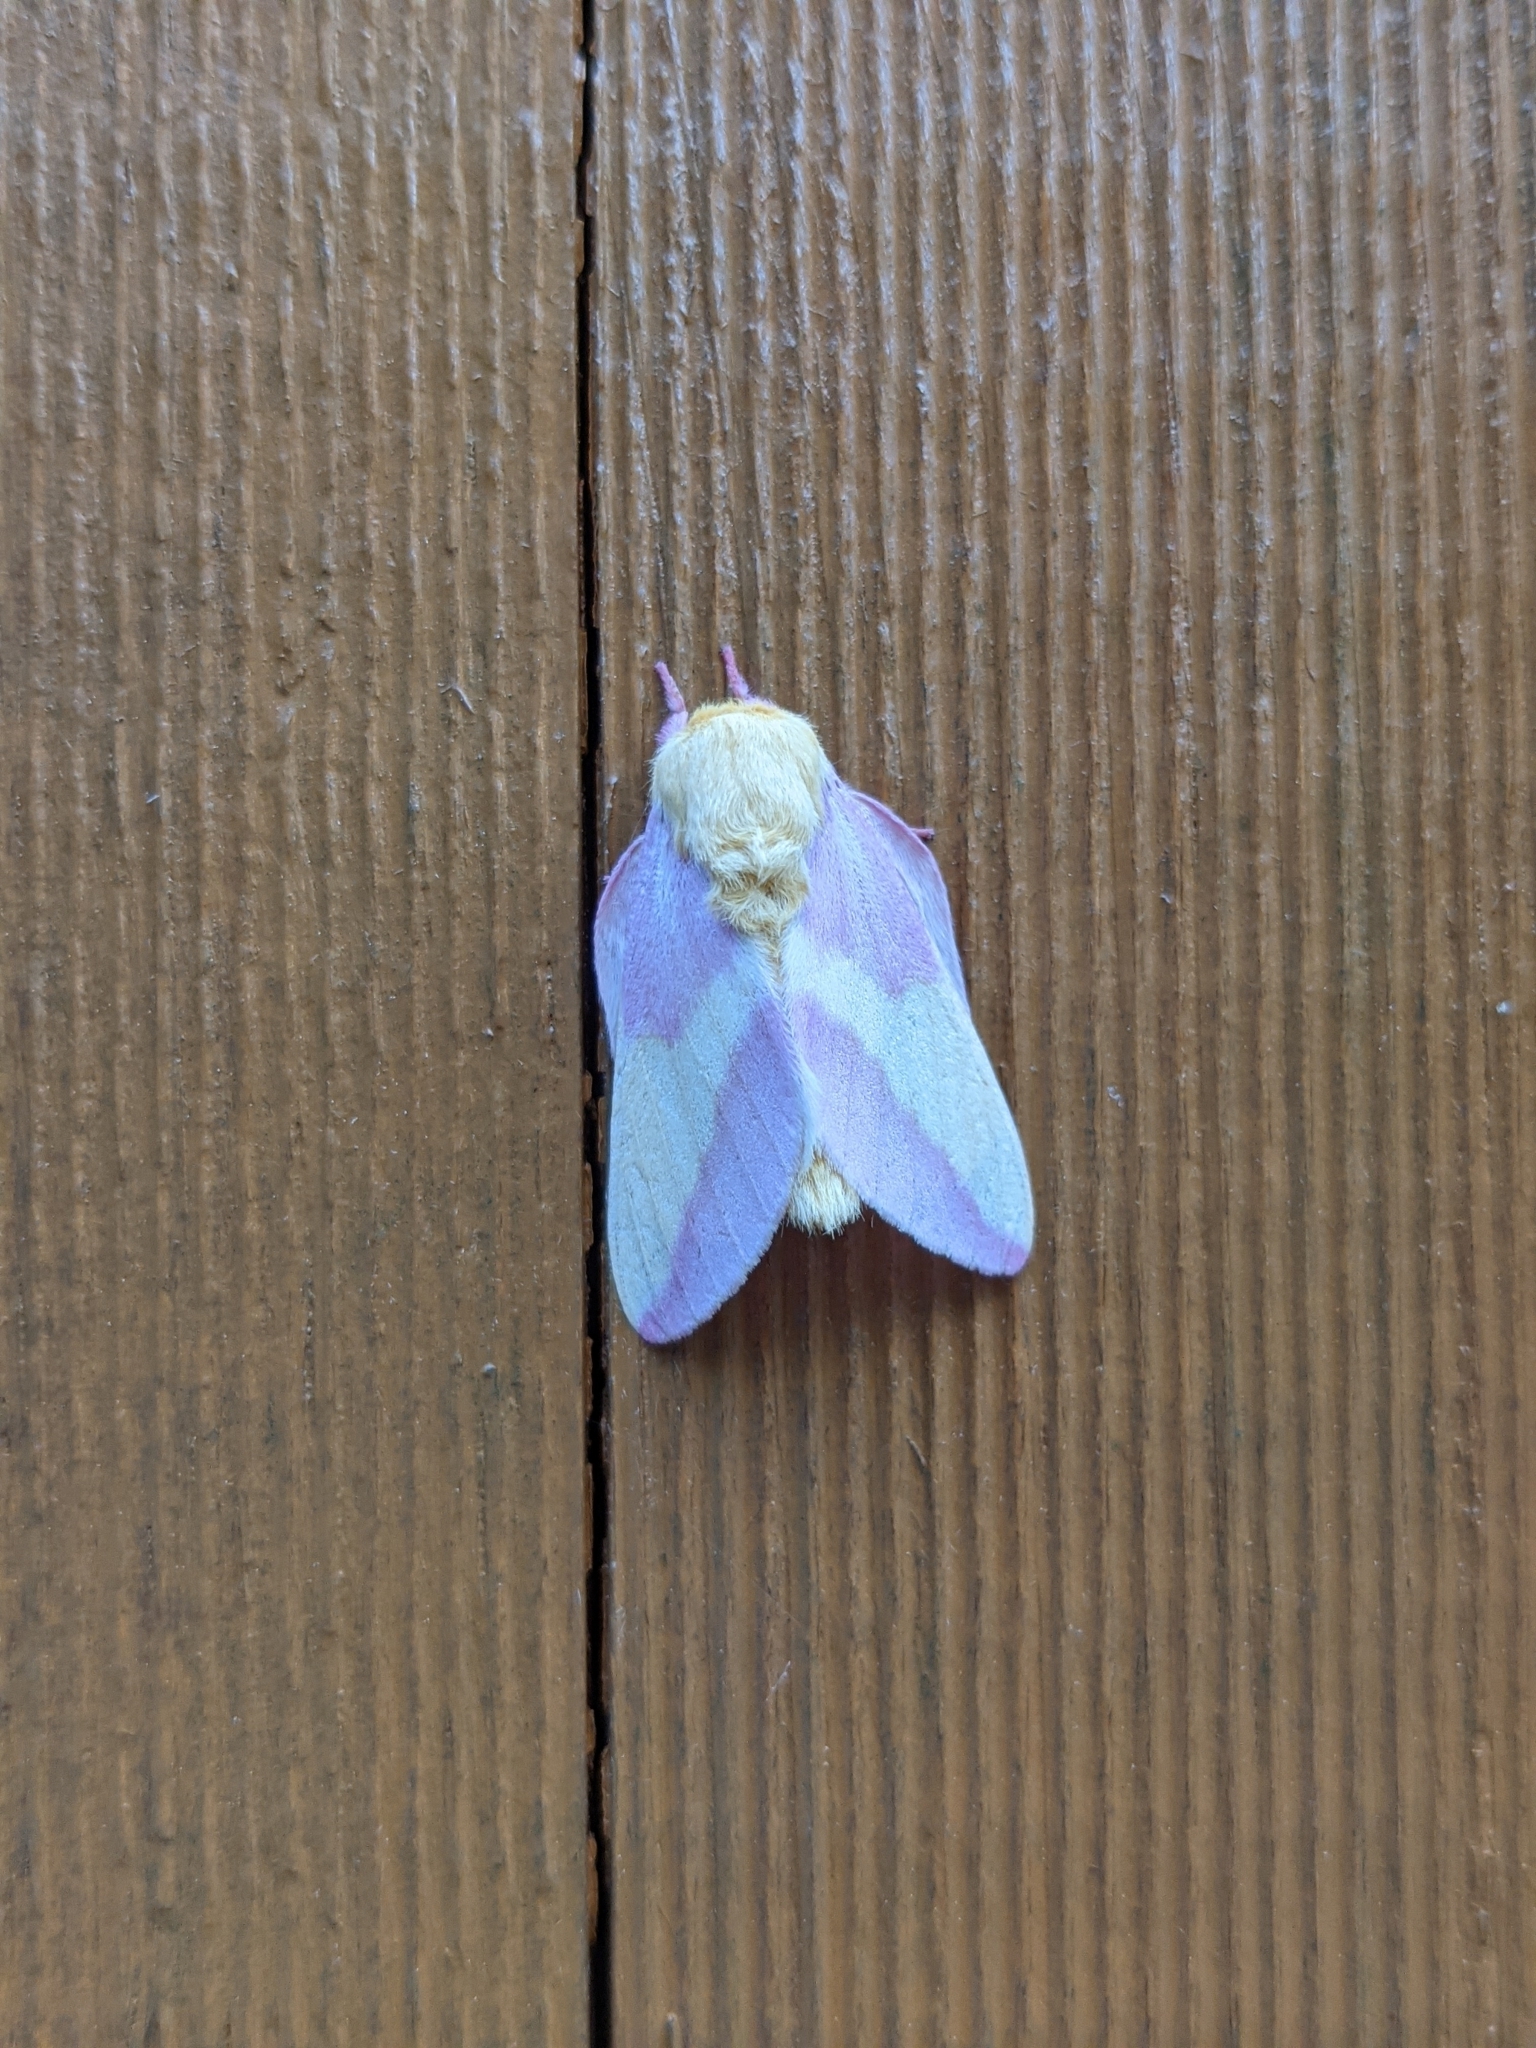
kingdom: Animalia
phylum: Arthropoda
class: Insecta
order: Lepidoptera
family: Saturniidae
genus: Dryocampa
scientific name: Dryocampa rubicunda
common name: Rosy maple moth
